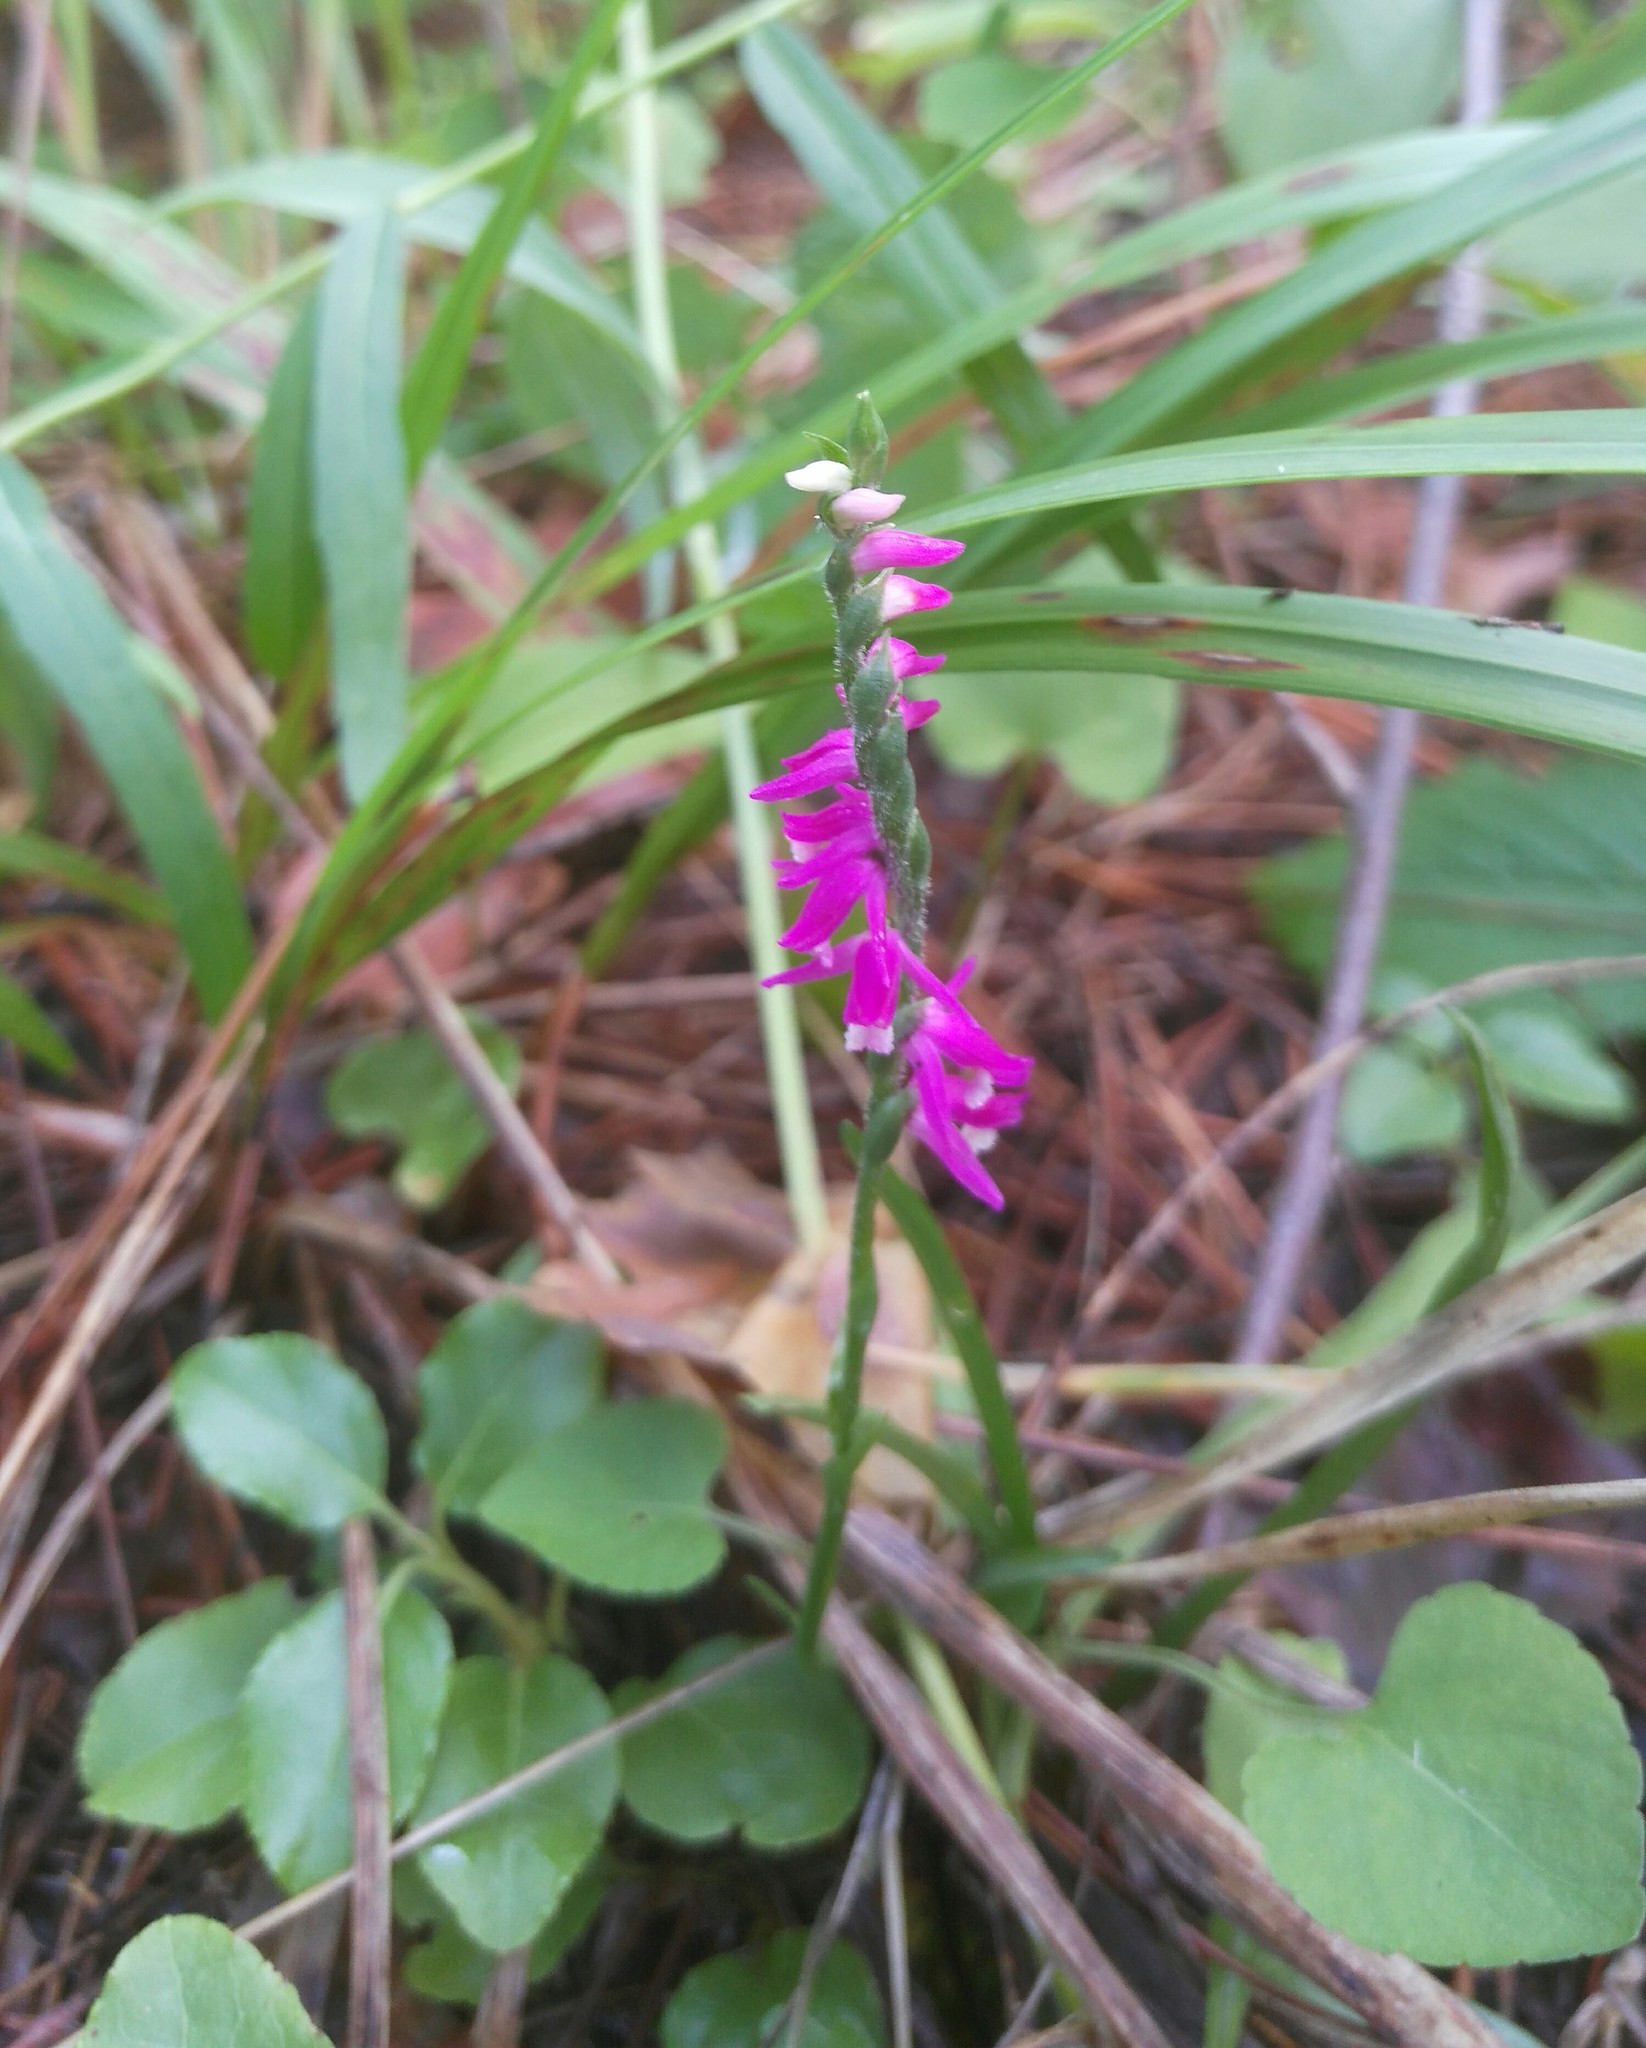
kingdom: Plantae
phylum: Tracheophyta
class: Liliopsida
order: Asparagales
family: Orchidaceae
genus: Spiranthes
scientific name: Spiranthes australis
